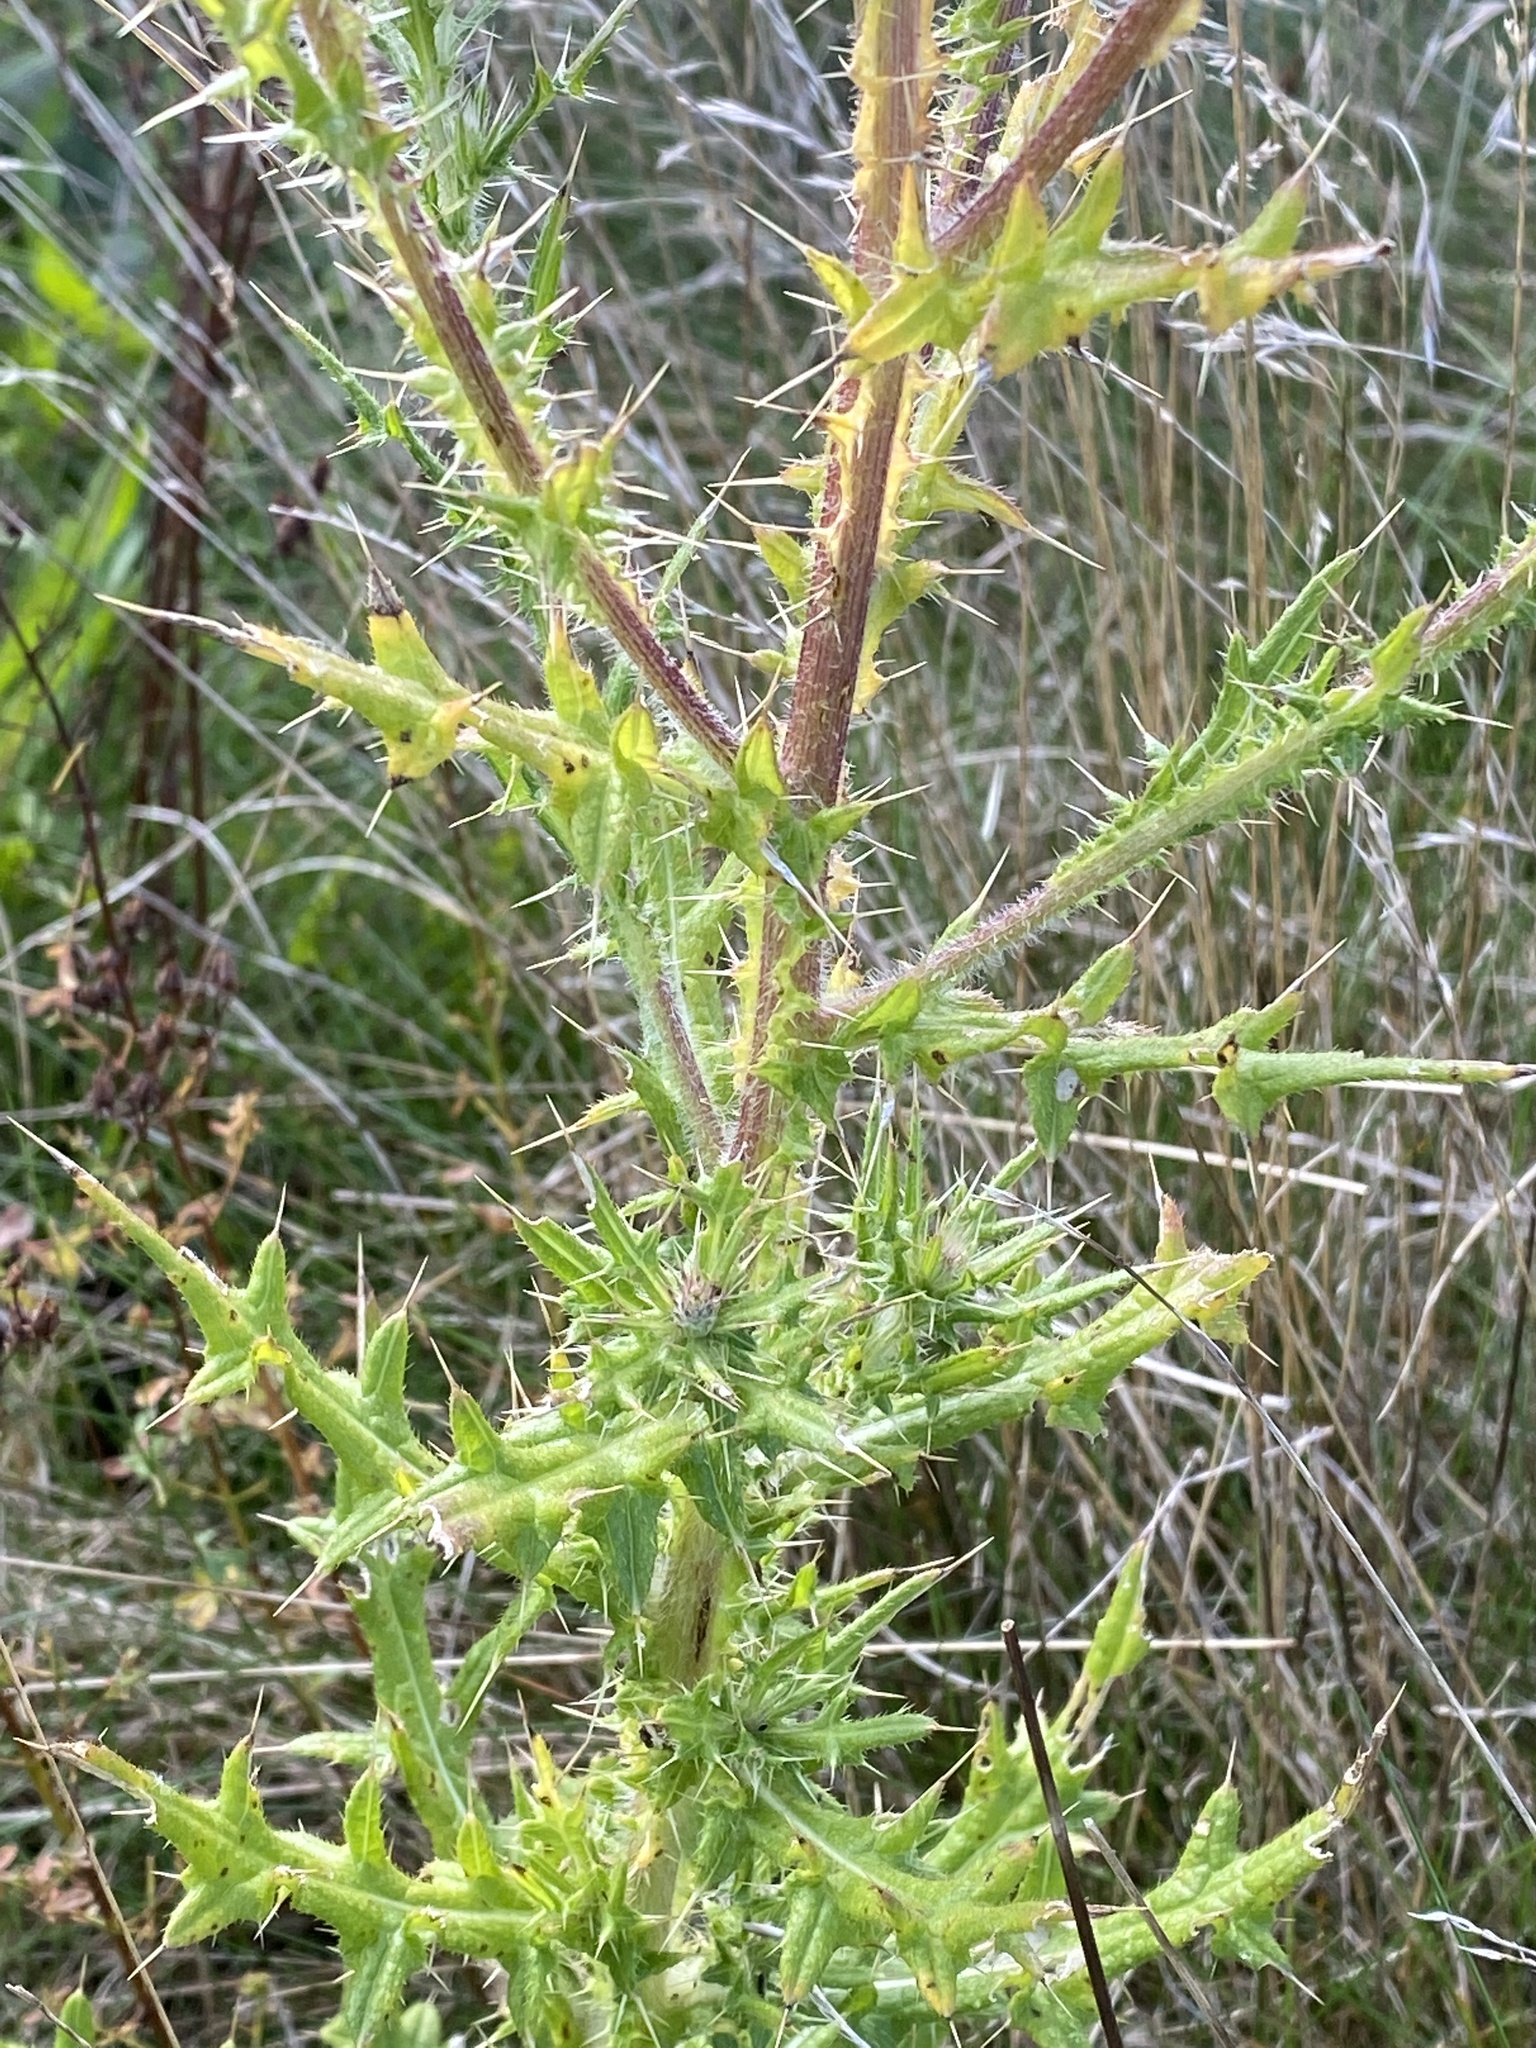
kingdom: Plantae
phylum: Tracheophyta
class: Magnoliopsida
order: Asterales
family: Asteraceae
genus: Cirsium
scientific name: Cirsium vulgare
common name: Bull thistle
